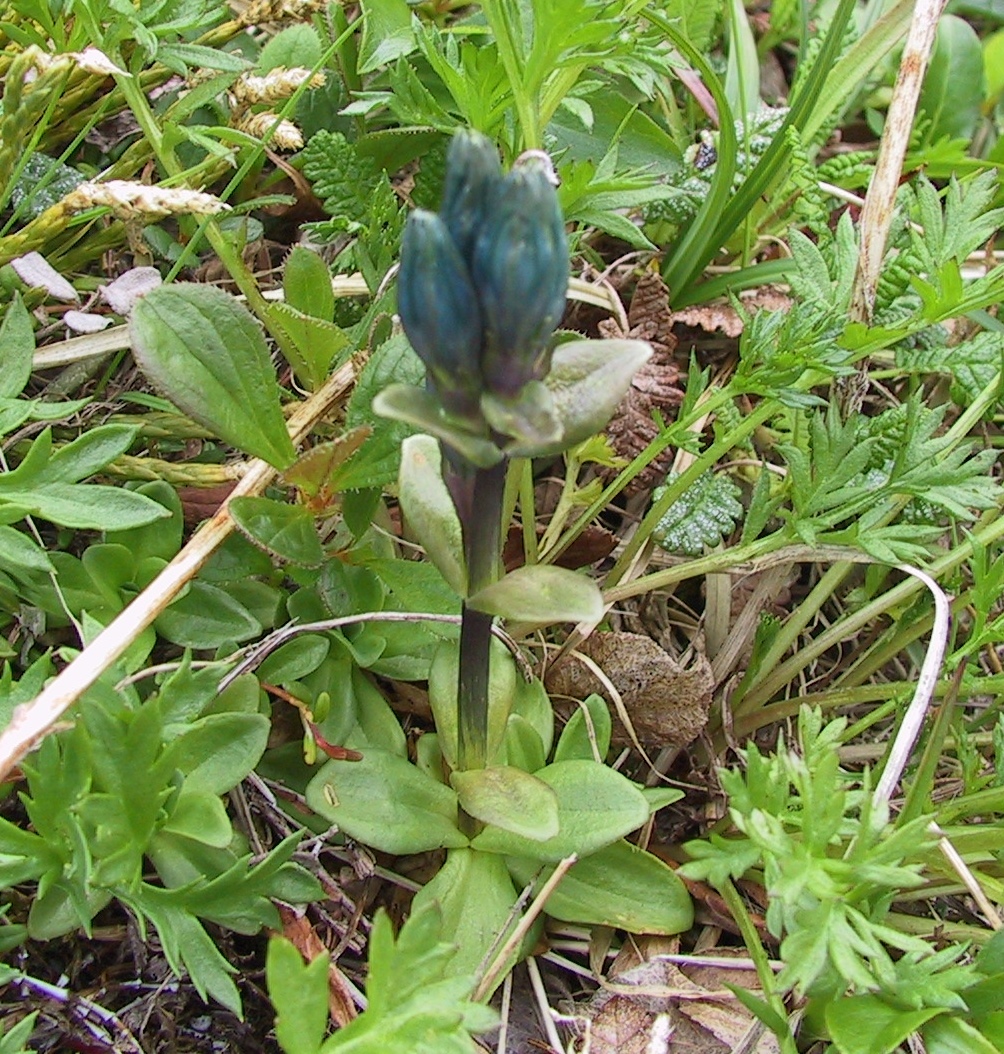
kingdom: Plantae
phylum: Tracheophyta
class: Magnoliopsida
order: Gentianales
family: Gentianaceae
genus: Gentiana
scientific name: Gentiana glauca
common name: Alpine gentian
